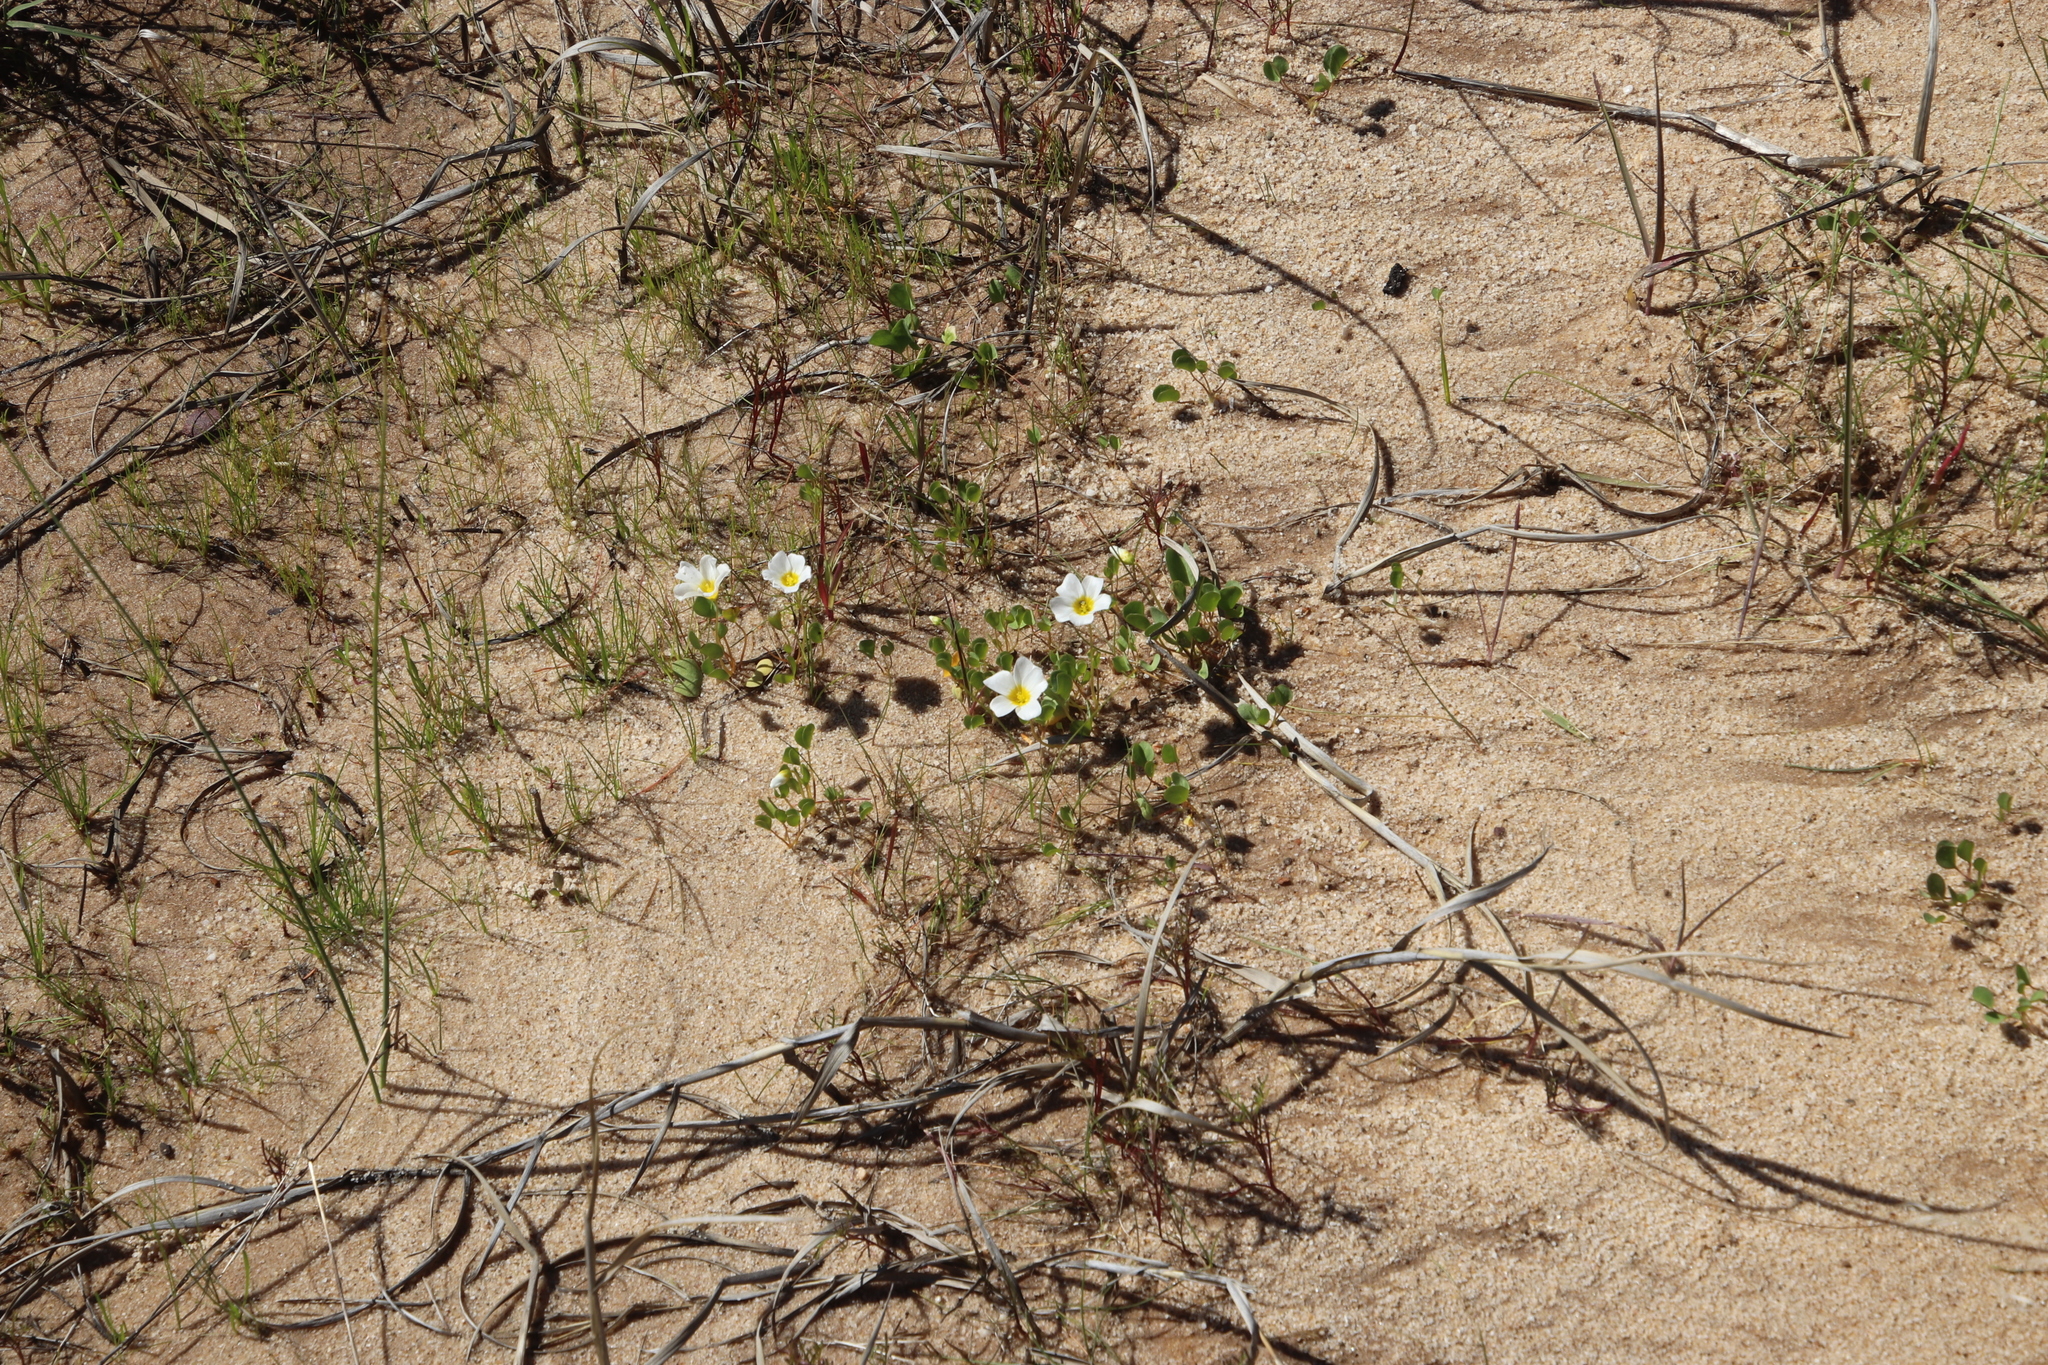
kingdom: Plantae
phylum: Tracheophyta
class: Magnoliopsida
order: Oxalidales
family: Oxalidaceae
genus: Oxalis
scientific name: Oxalis dregei
